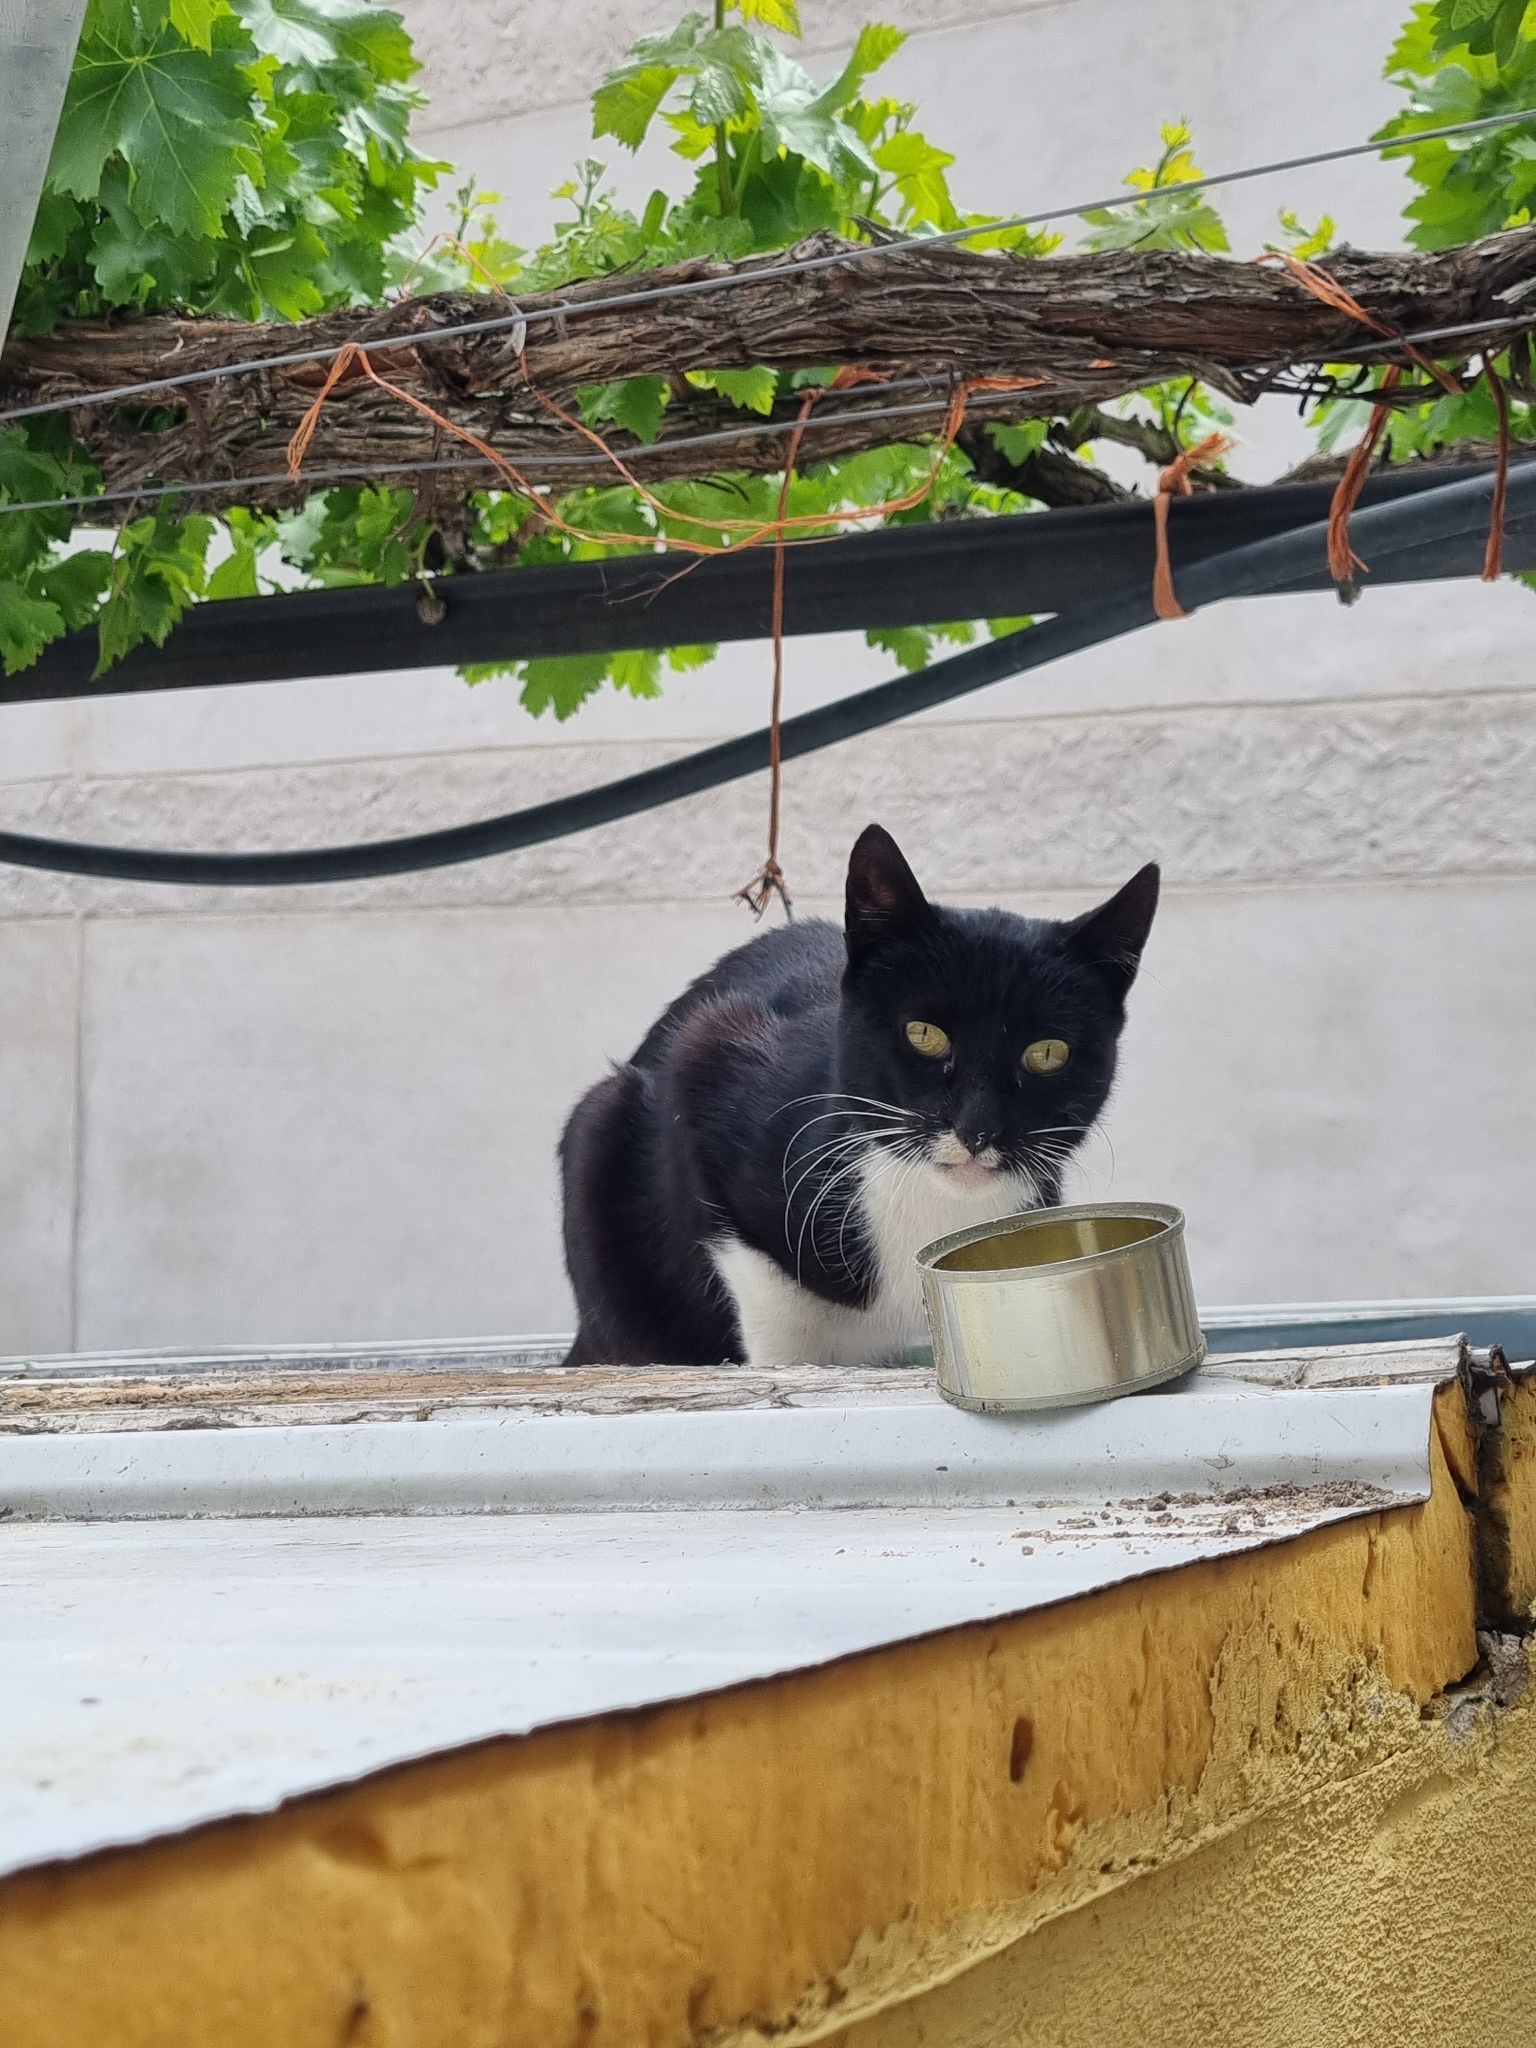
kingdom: Animalia
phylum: Chordata
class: Mammalia
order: Carnivora
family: Felidae
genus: Felis
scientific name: Felis catus
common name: Domestic cat
